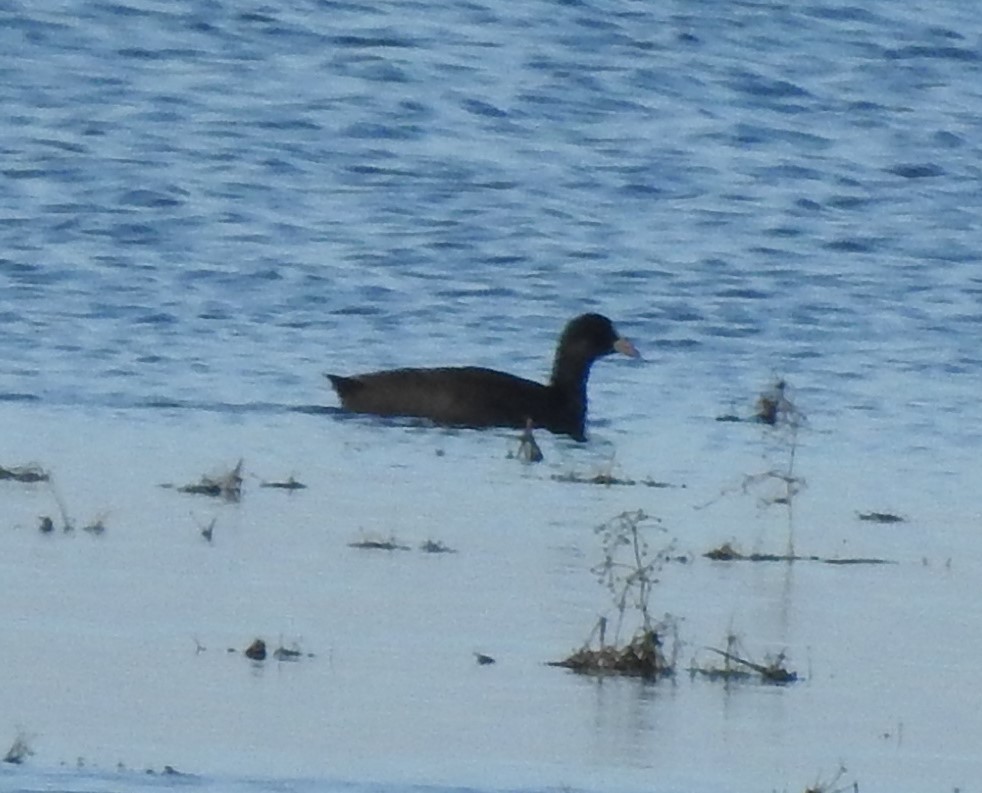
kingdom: Animalia
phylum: Chordata
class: Aves
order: Gruiformes
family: Rallidae
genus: Fulica
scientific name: Fulica atra
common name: Eurasian coot
